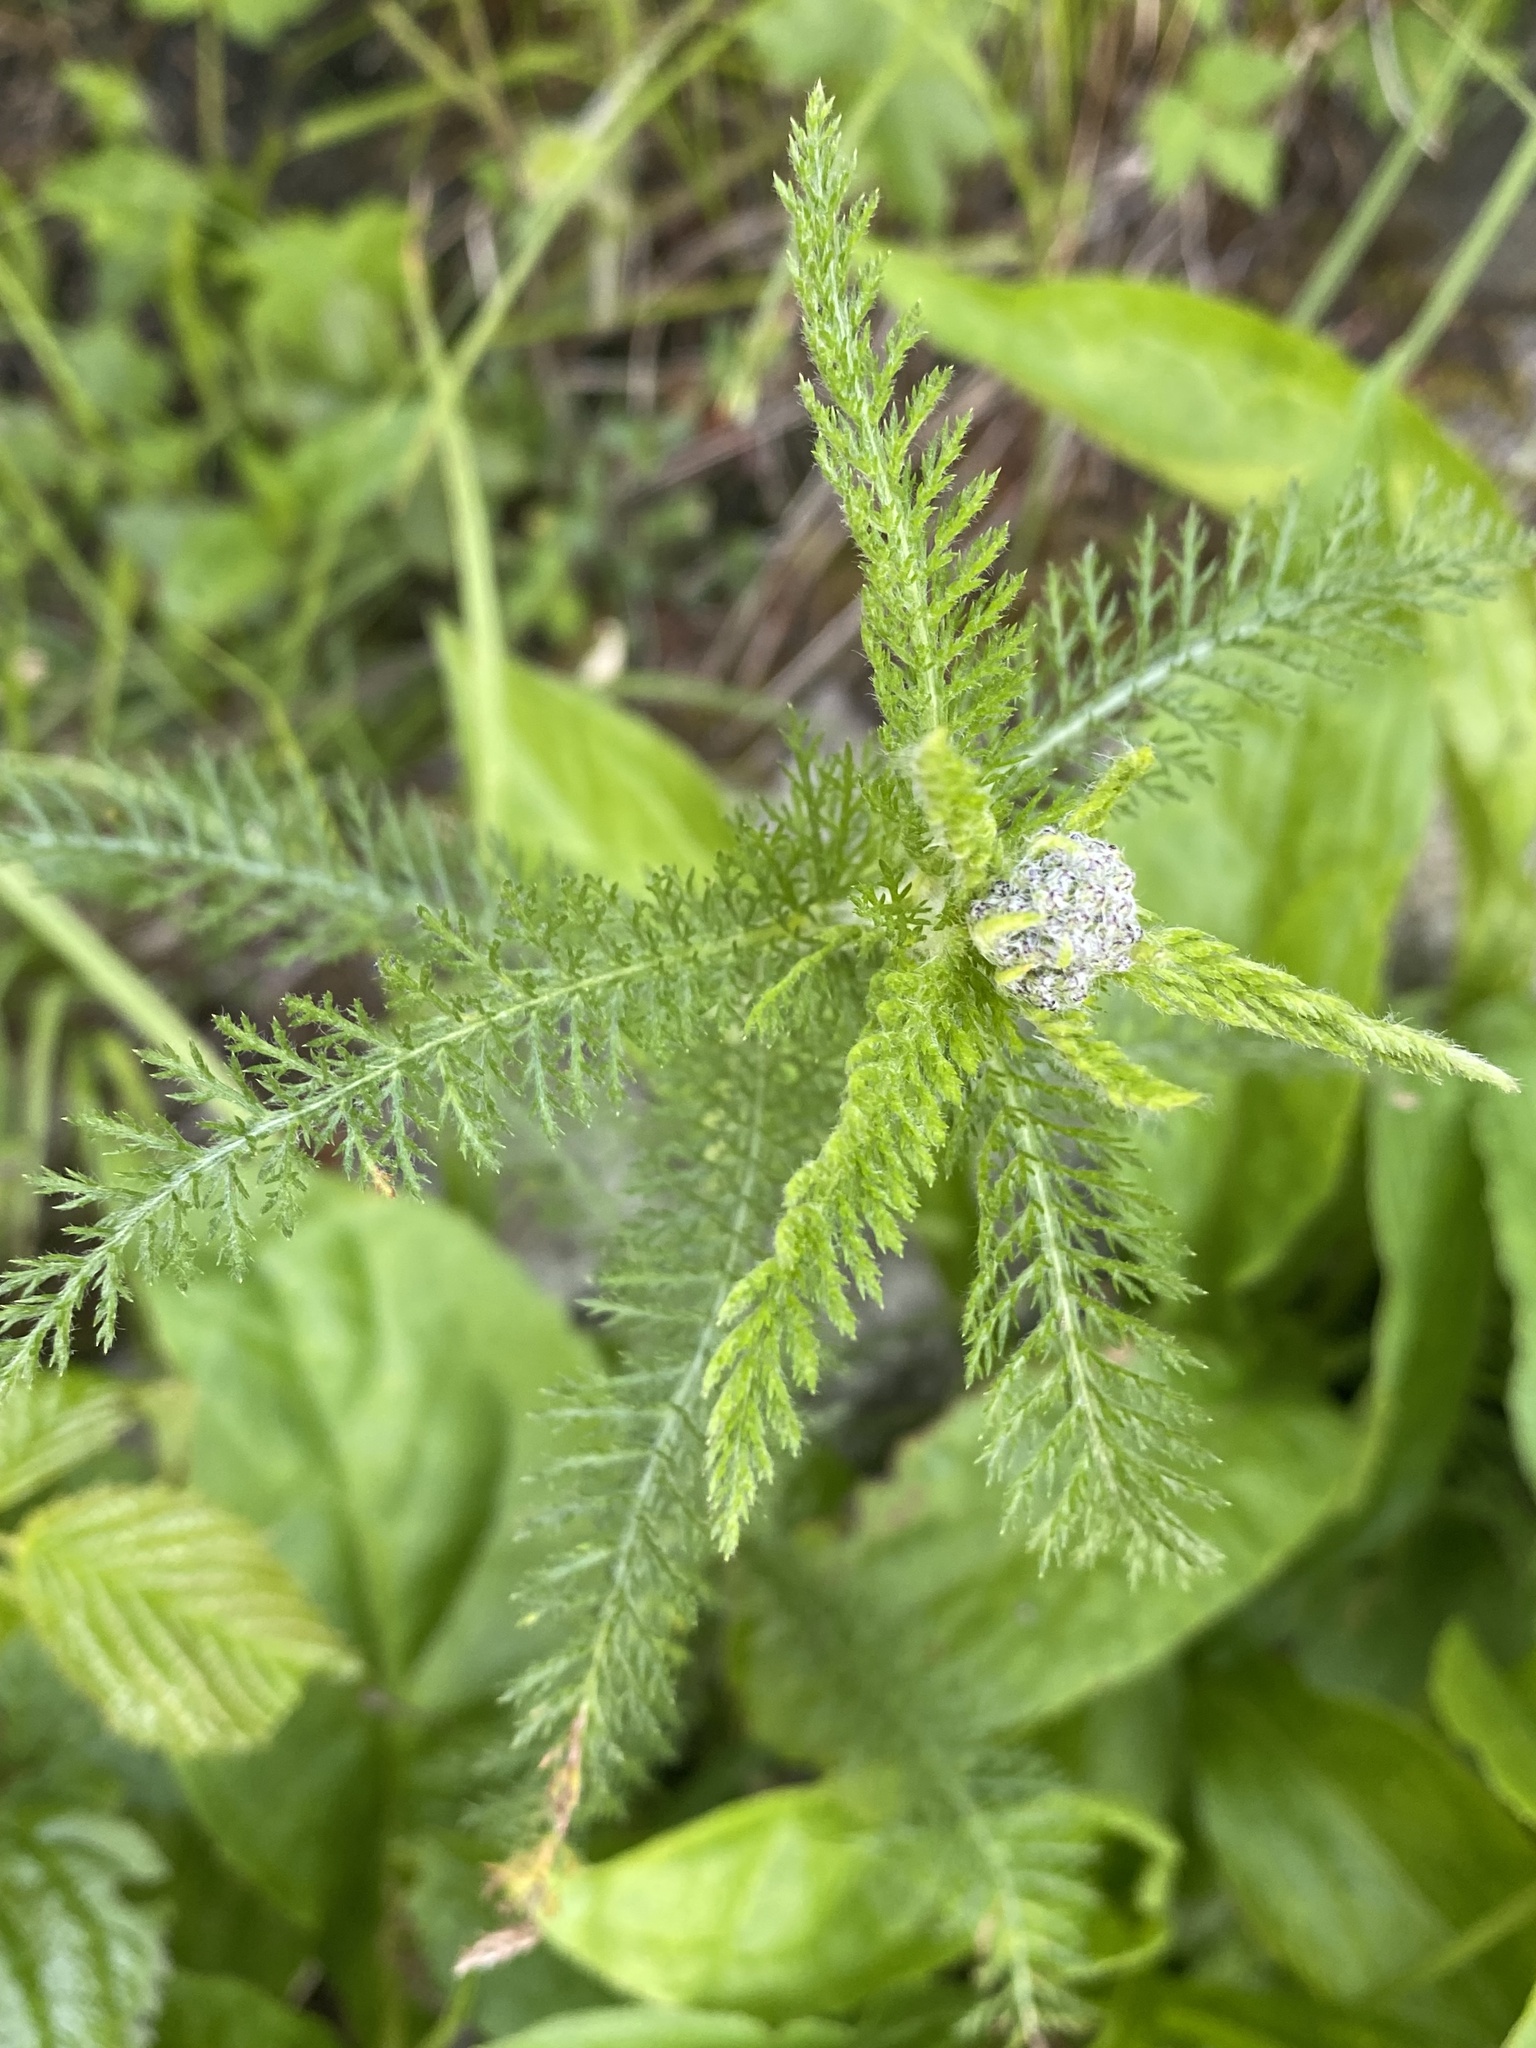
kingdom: Plantae
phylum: Tracheophyta
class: Magnoliopsida
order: Asterales
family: Asteraceae
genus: Achillea
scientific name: Achillea millefolium
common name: Yarrow
